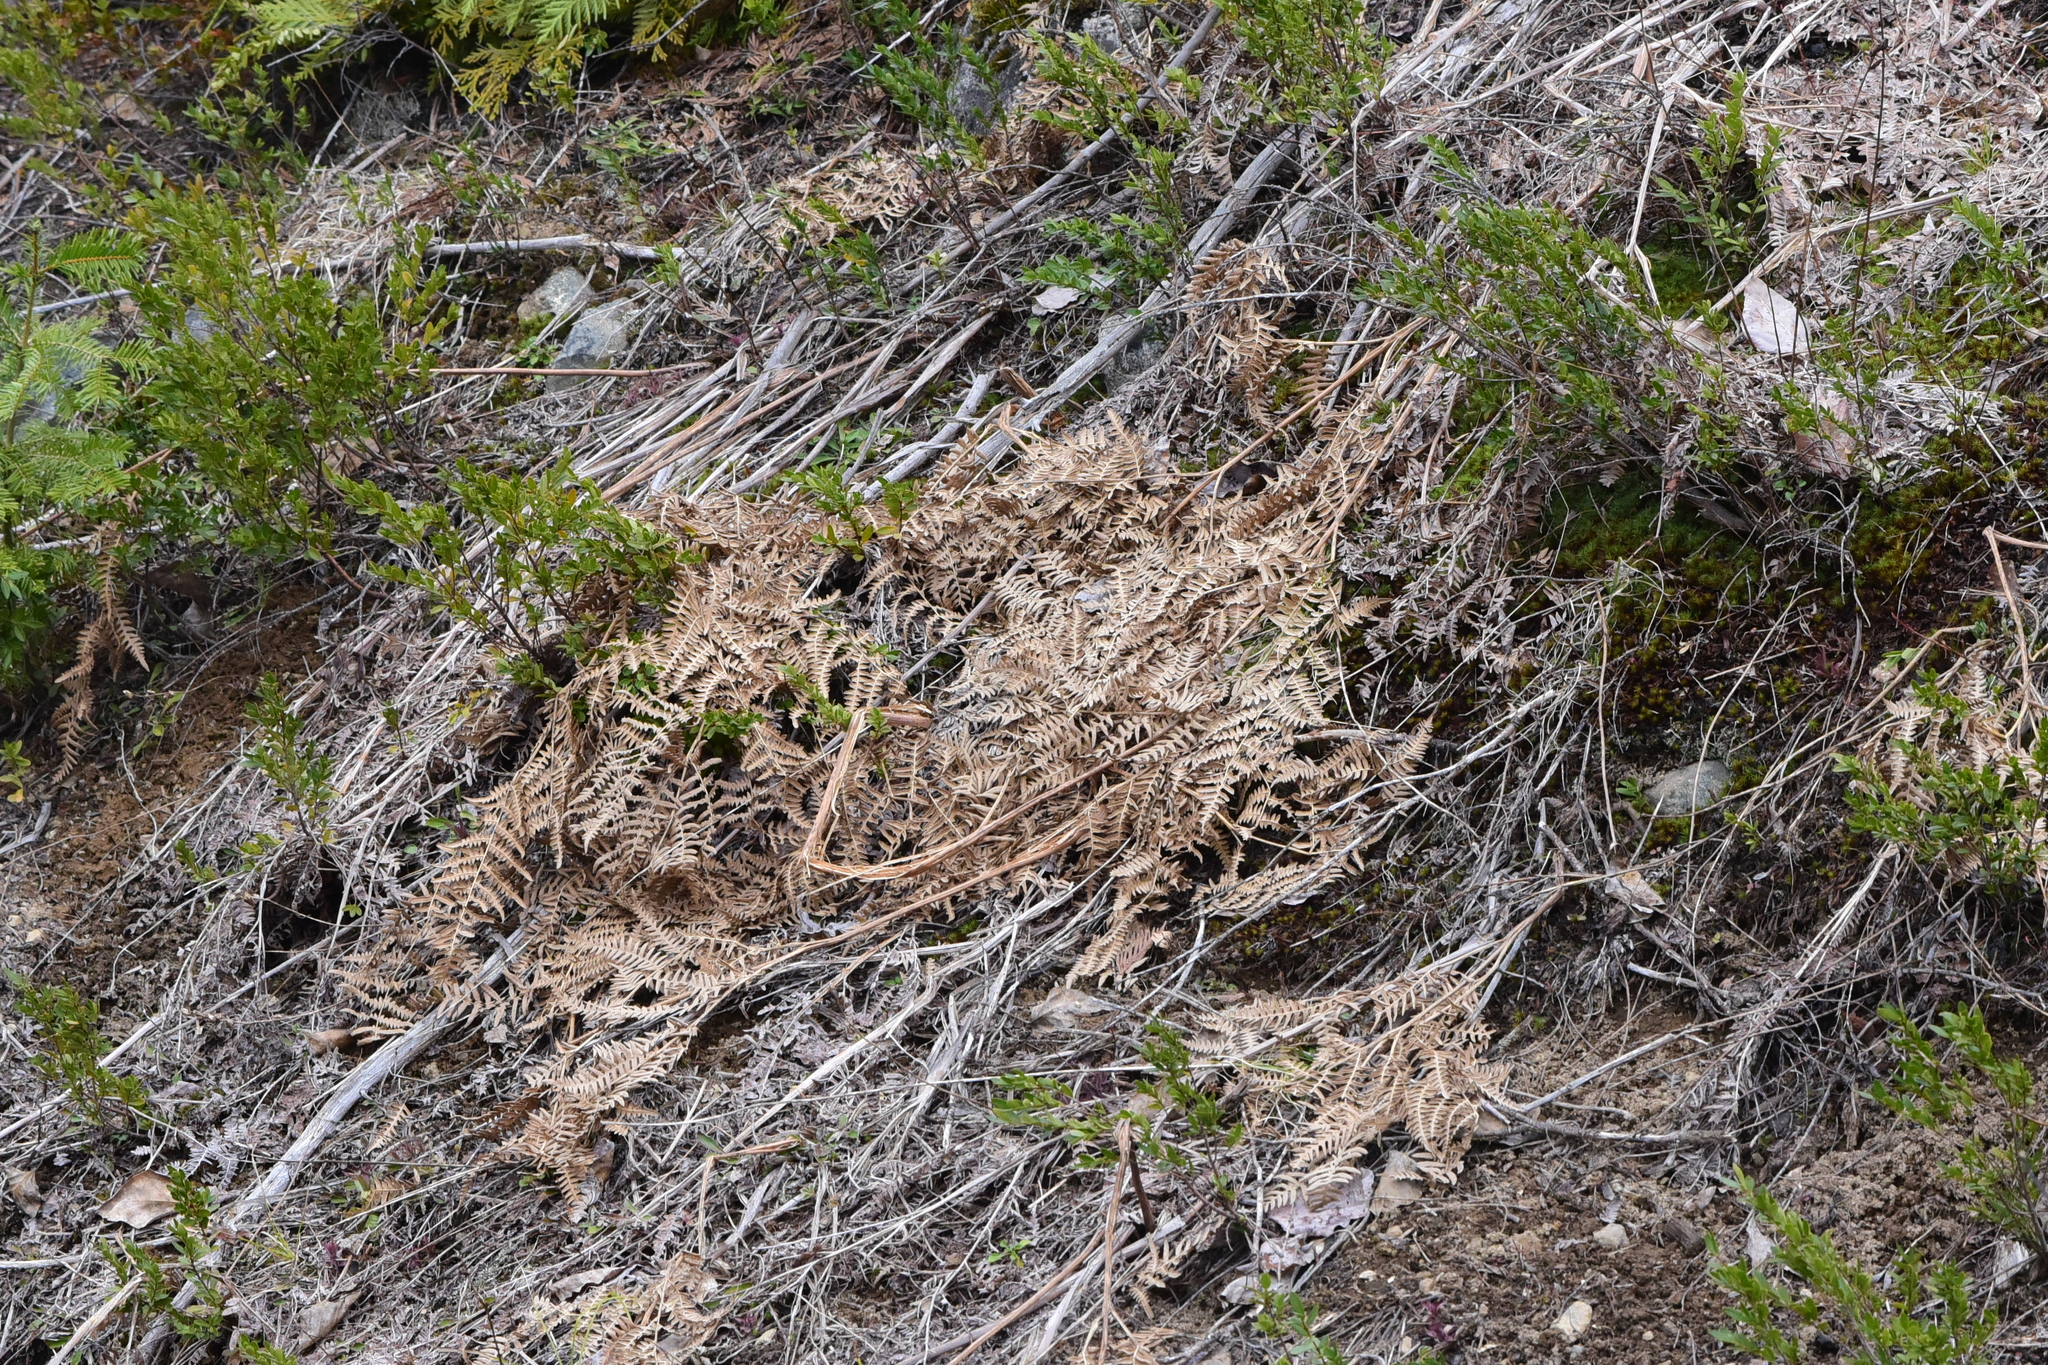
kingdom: Plantae
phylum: Tracheophyta
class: Polypodiopsida
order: Polypodiales
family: Dennstaedtiaceae
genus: Pteridium
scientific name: Pteridium aquilinum
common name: Bracken
